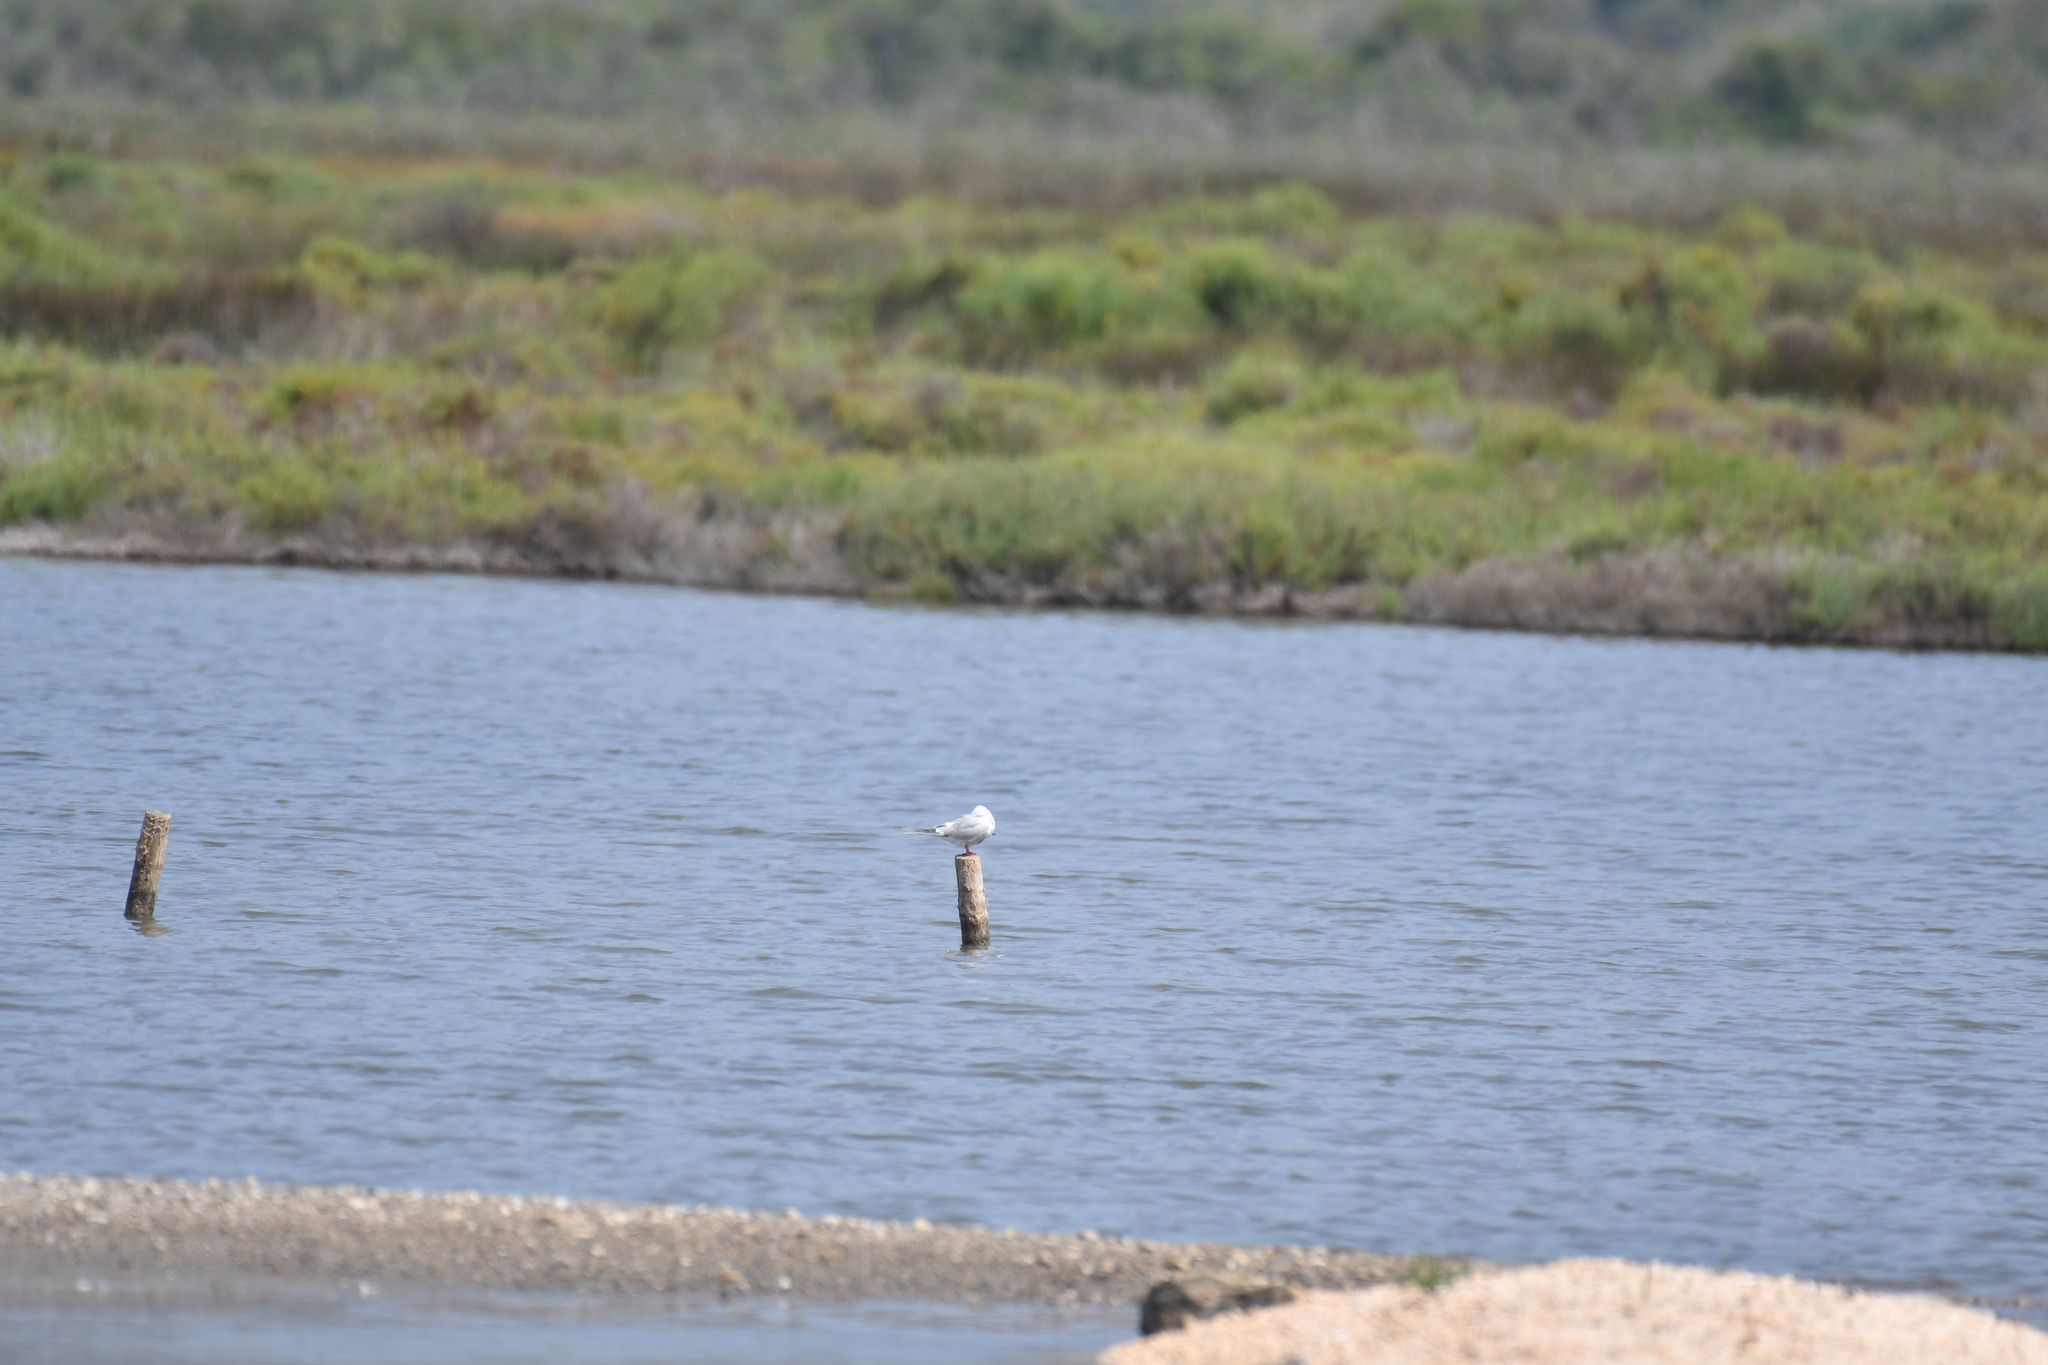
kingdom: Animalia
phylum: Chordata
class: Aves
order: Charadriiformes
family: Laridae
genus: Sterna
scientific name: Sterna hirundo
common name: Common tern
